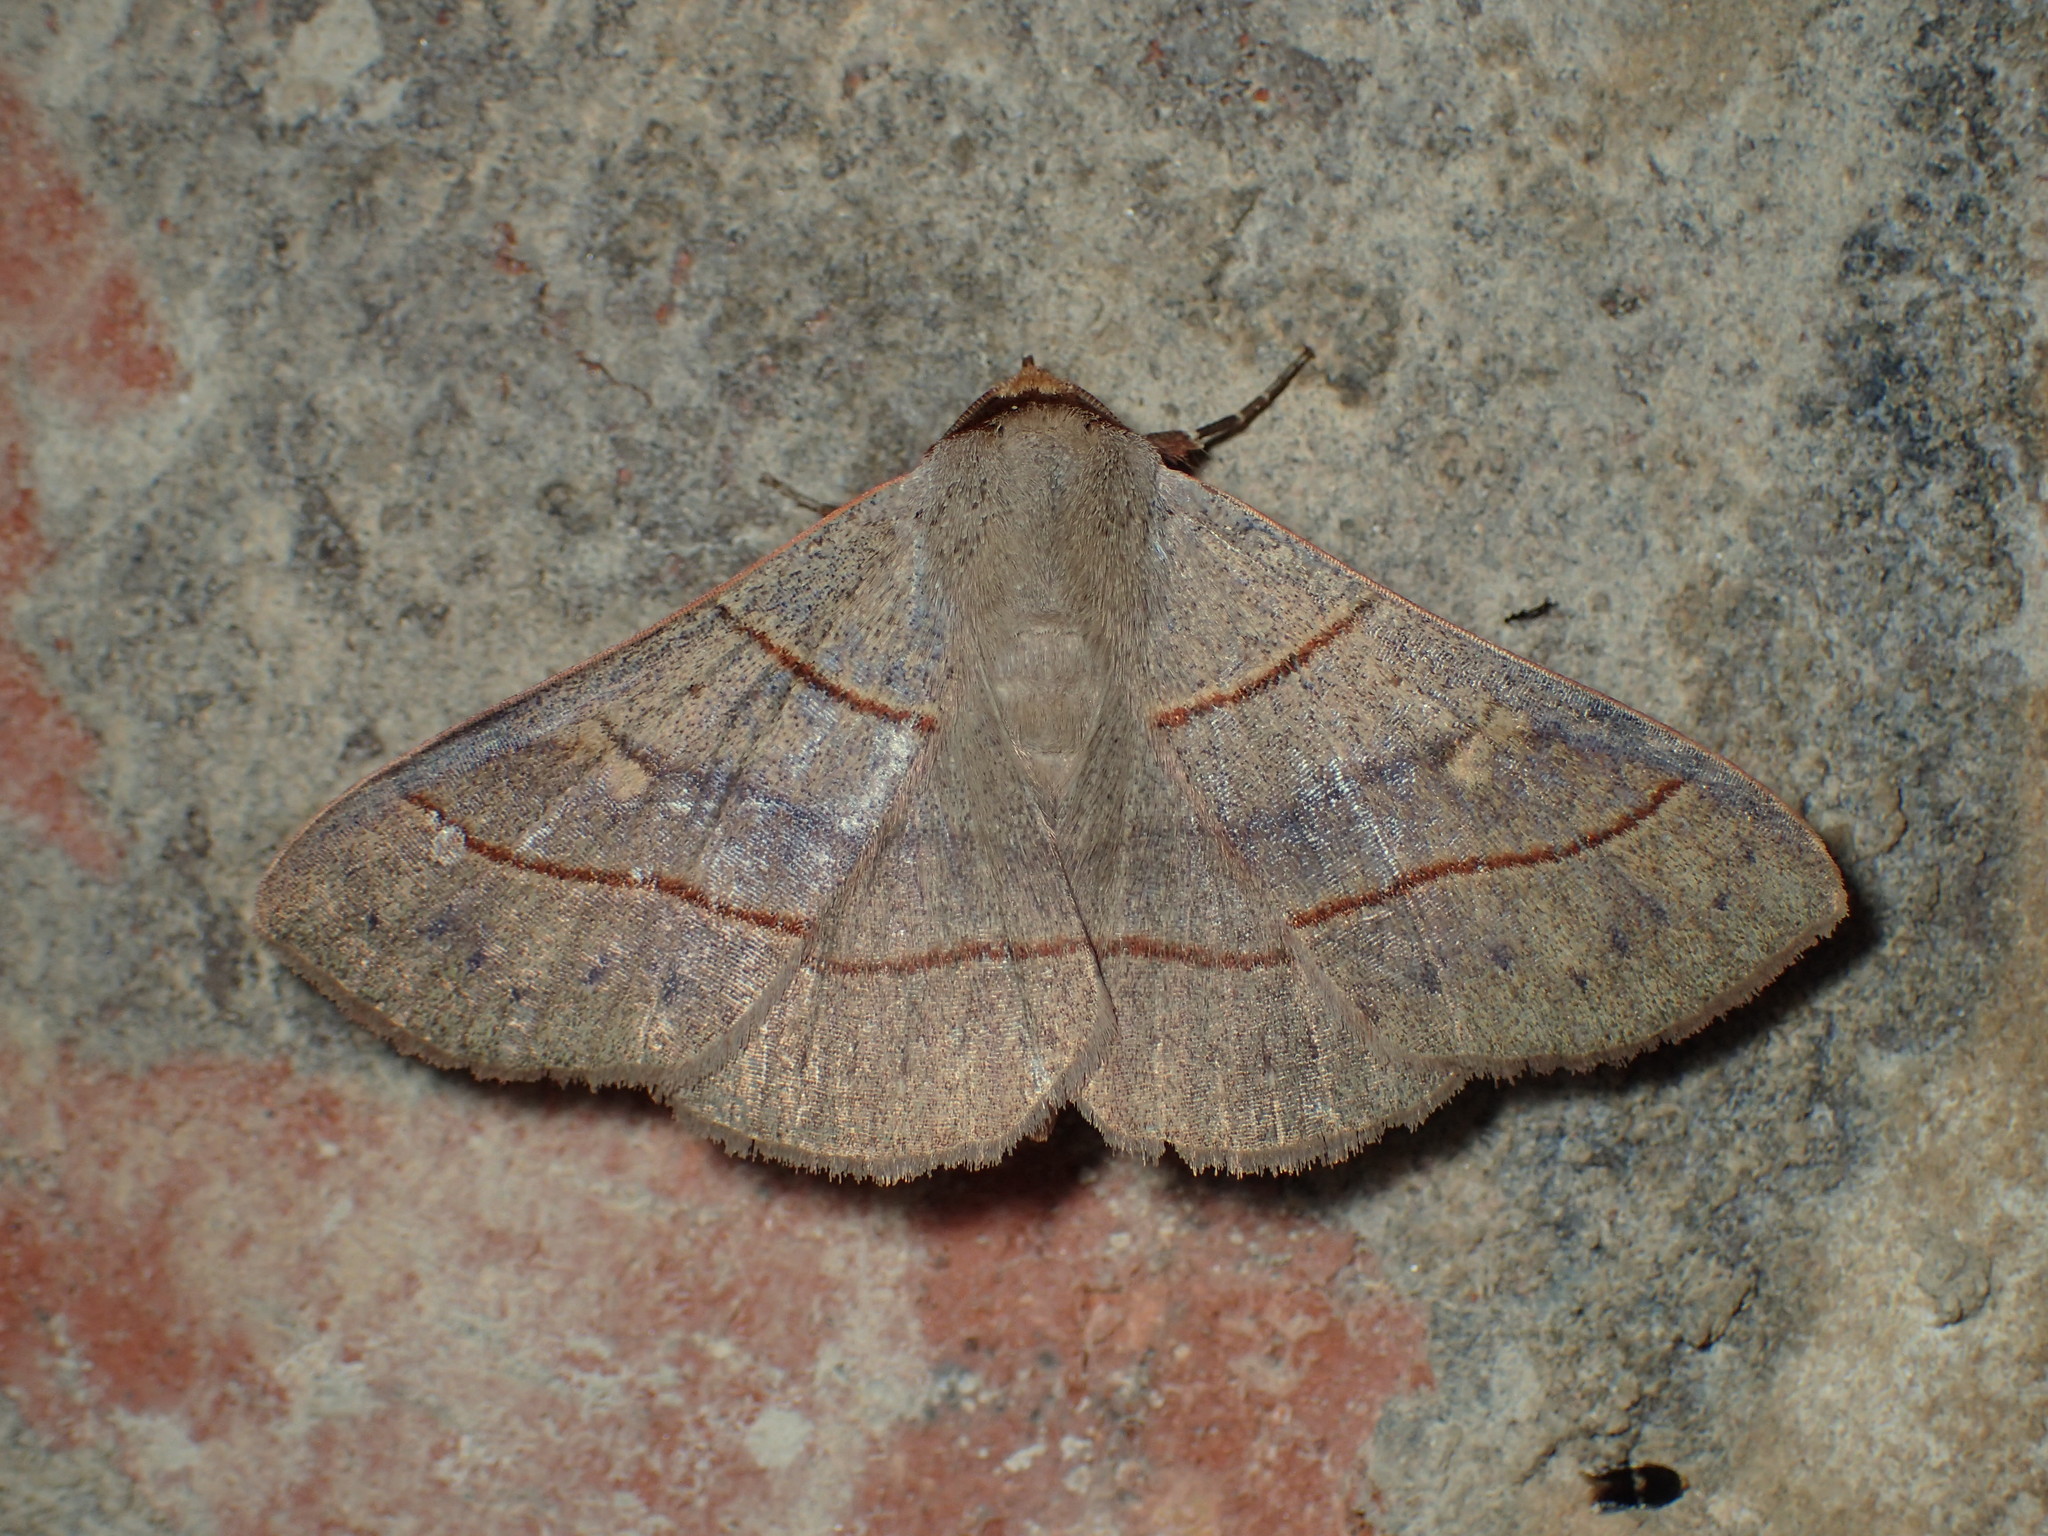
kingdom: Animalia
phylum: Arthropoda
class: Insecta
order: Lepidoptera
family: Erebidae
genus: Panopoda
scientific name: Panopoda rufimargo
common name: Red-lined panopoda moth
